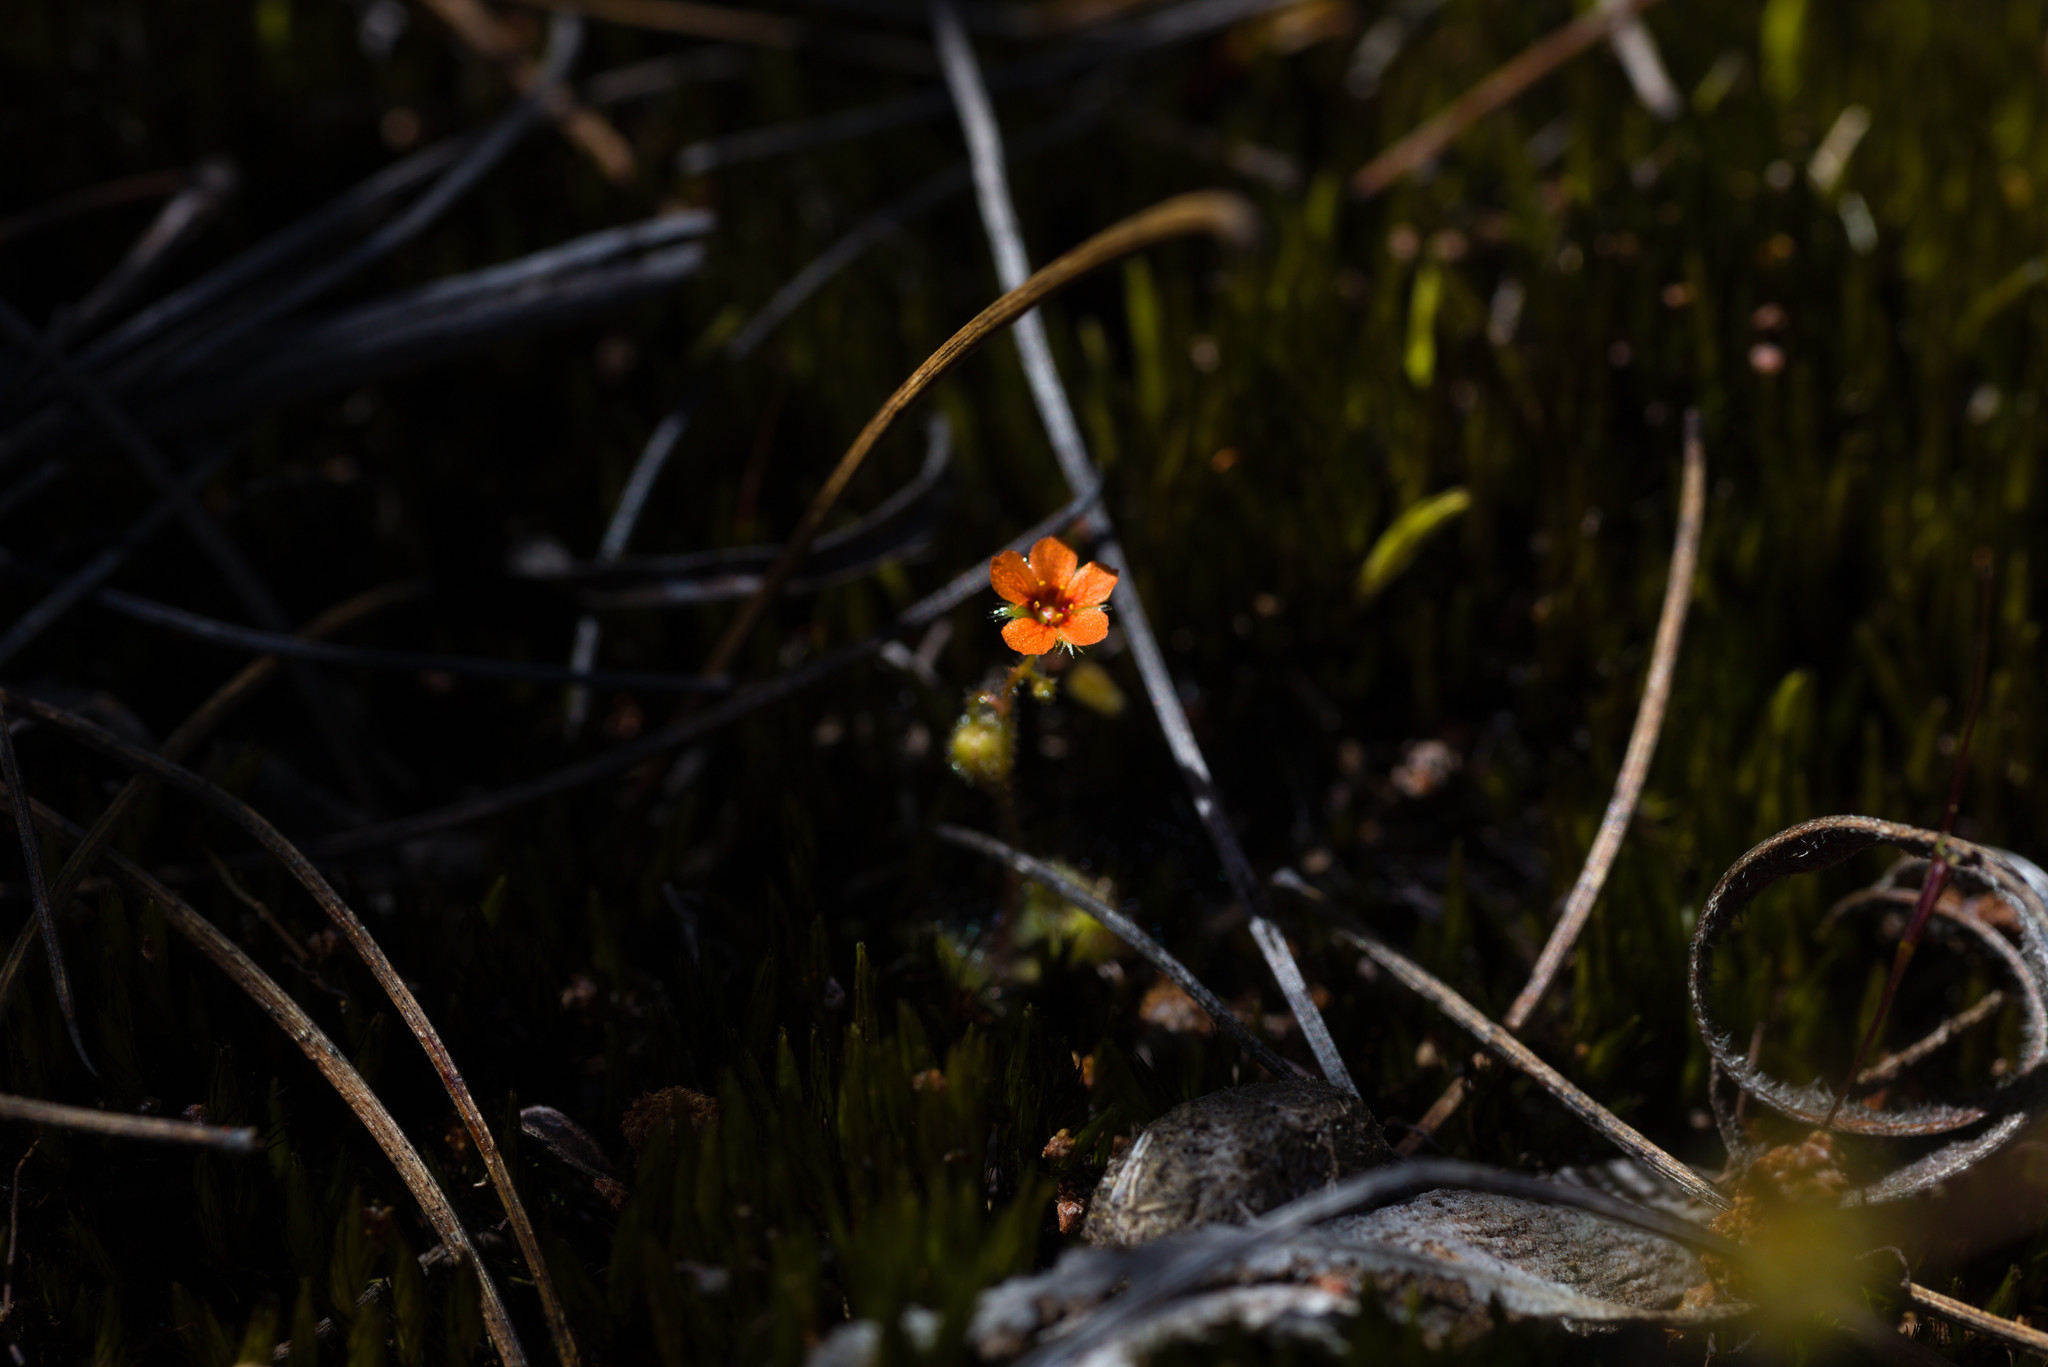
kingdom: Plantae
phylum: Tracheophyta
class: Magnoliopsida
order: Caryophyllales
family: Droseraceae
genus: Drosera
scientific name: Drosera glanduligera
